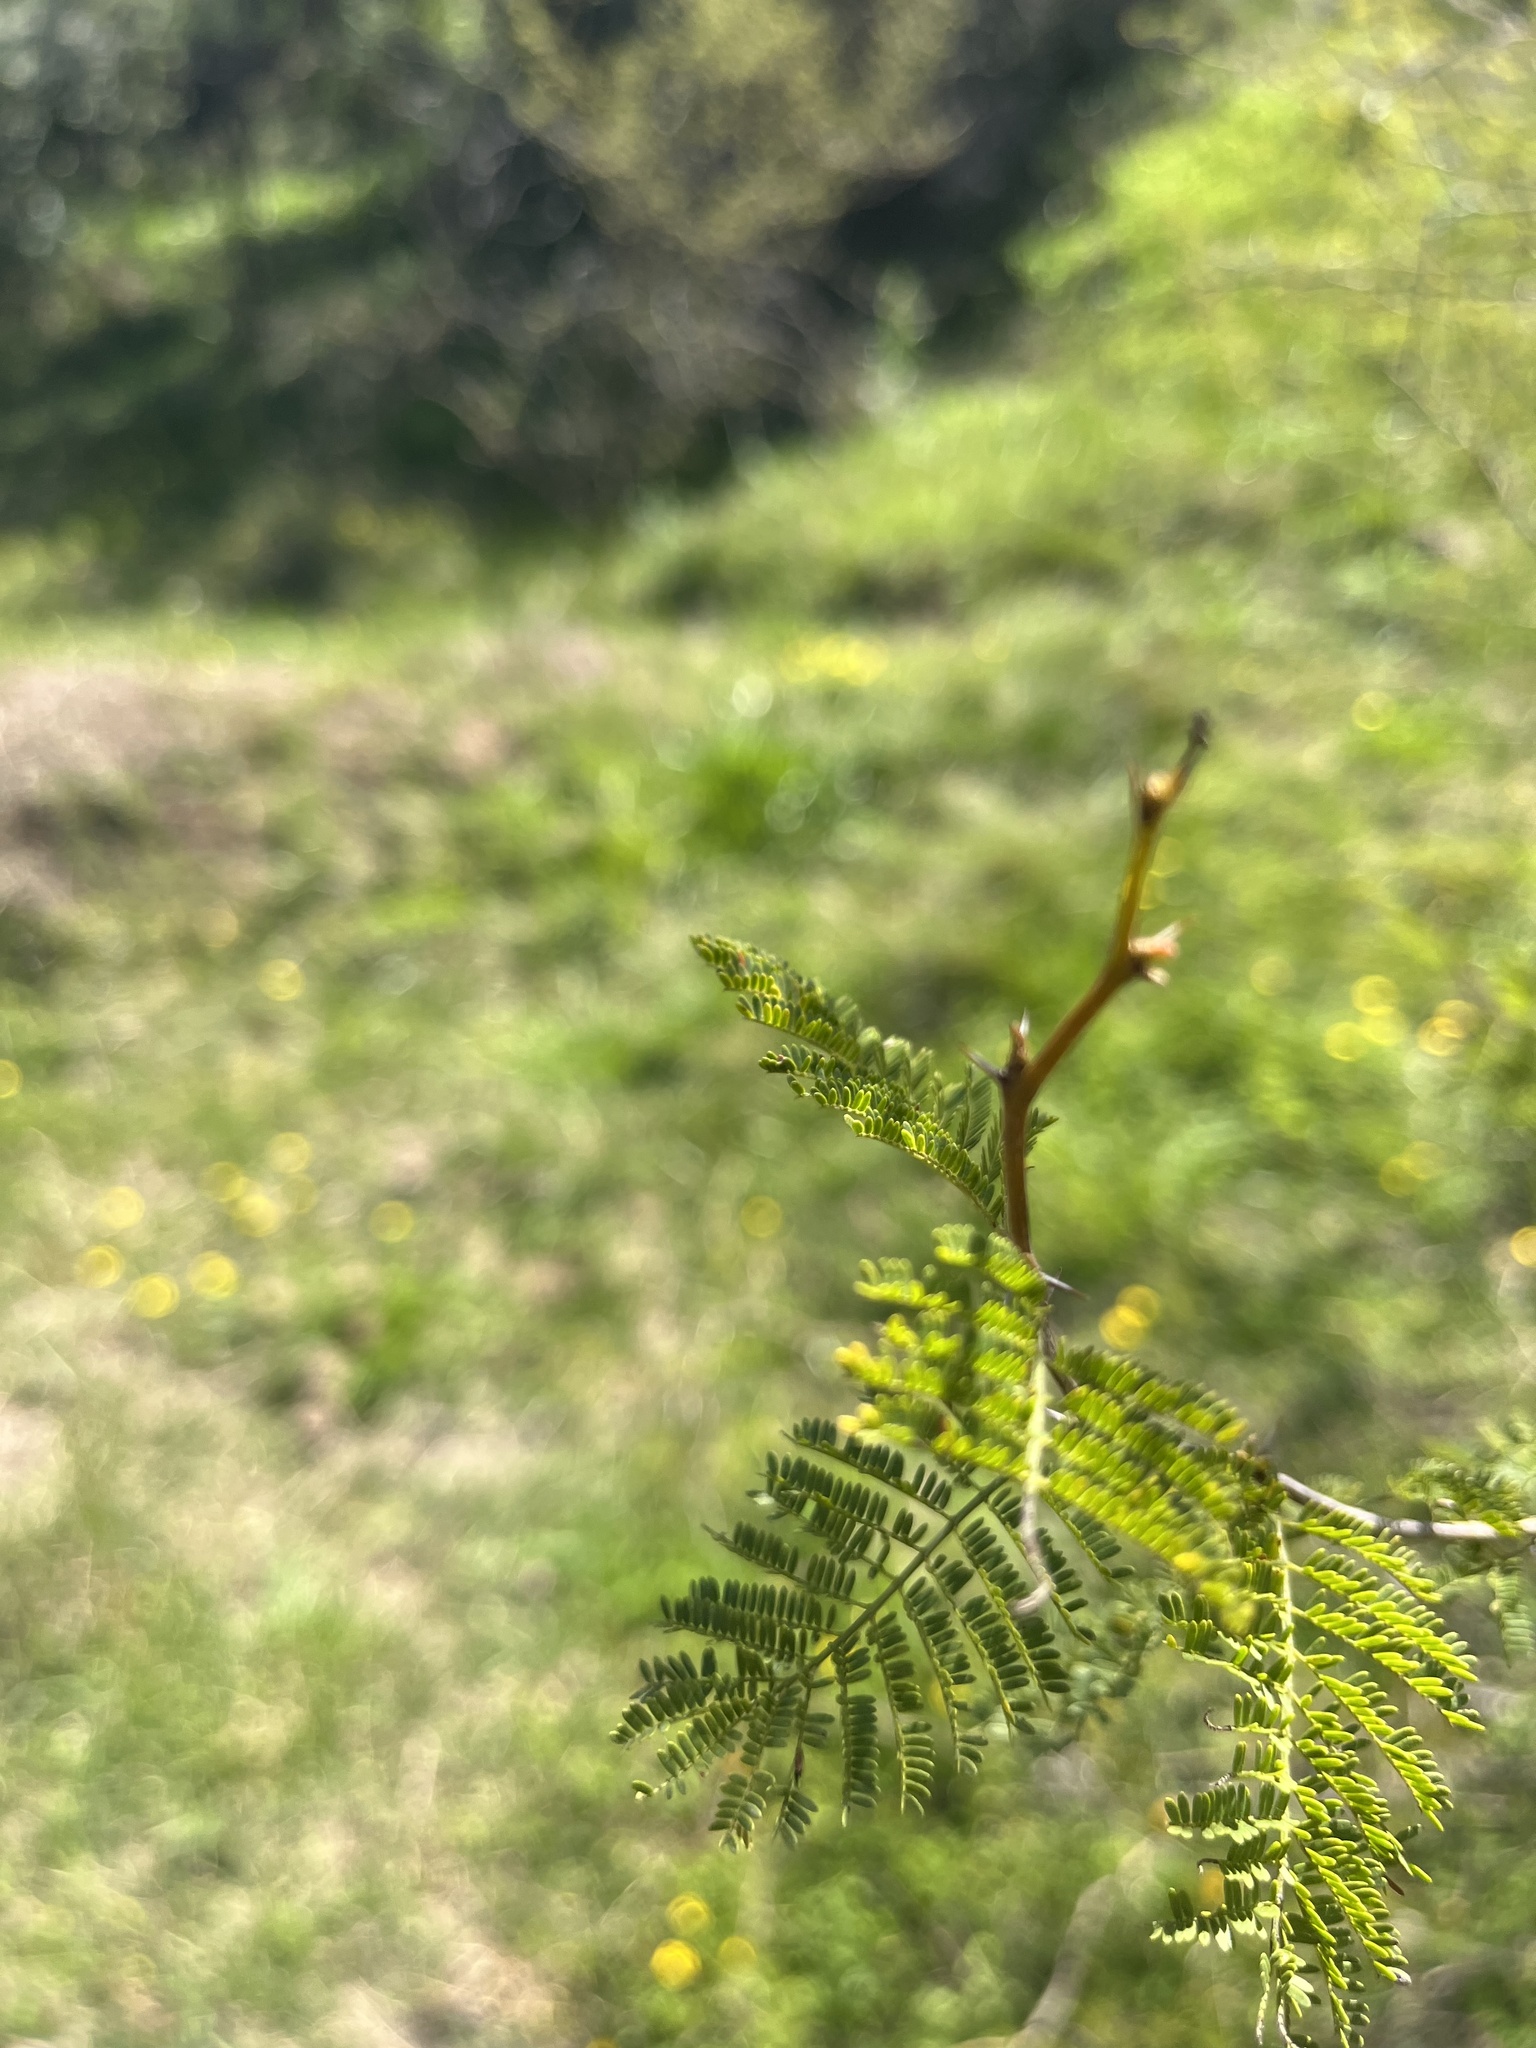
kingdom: Plantae
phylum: Tracheophyta
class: Magnoliopsida
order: Fabales
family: Fabaceae
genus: Vachellia
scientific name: Vachellia caven
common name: Roman cassie
